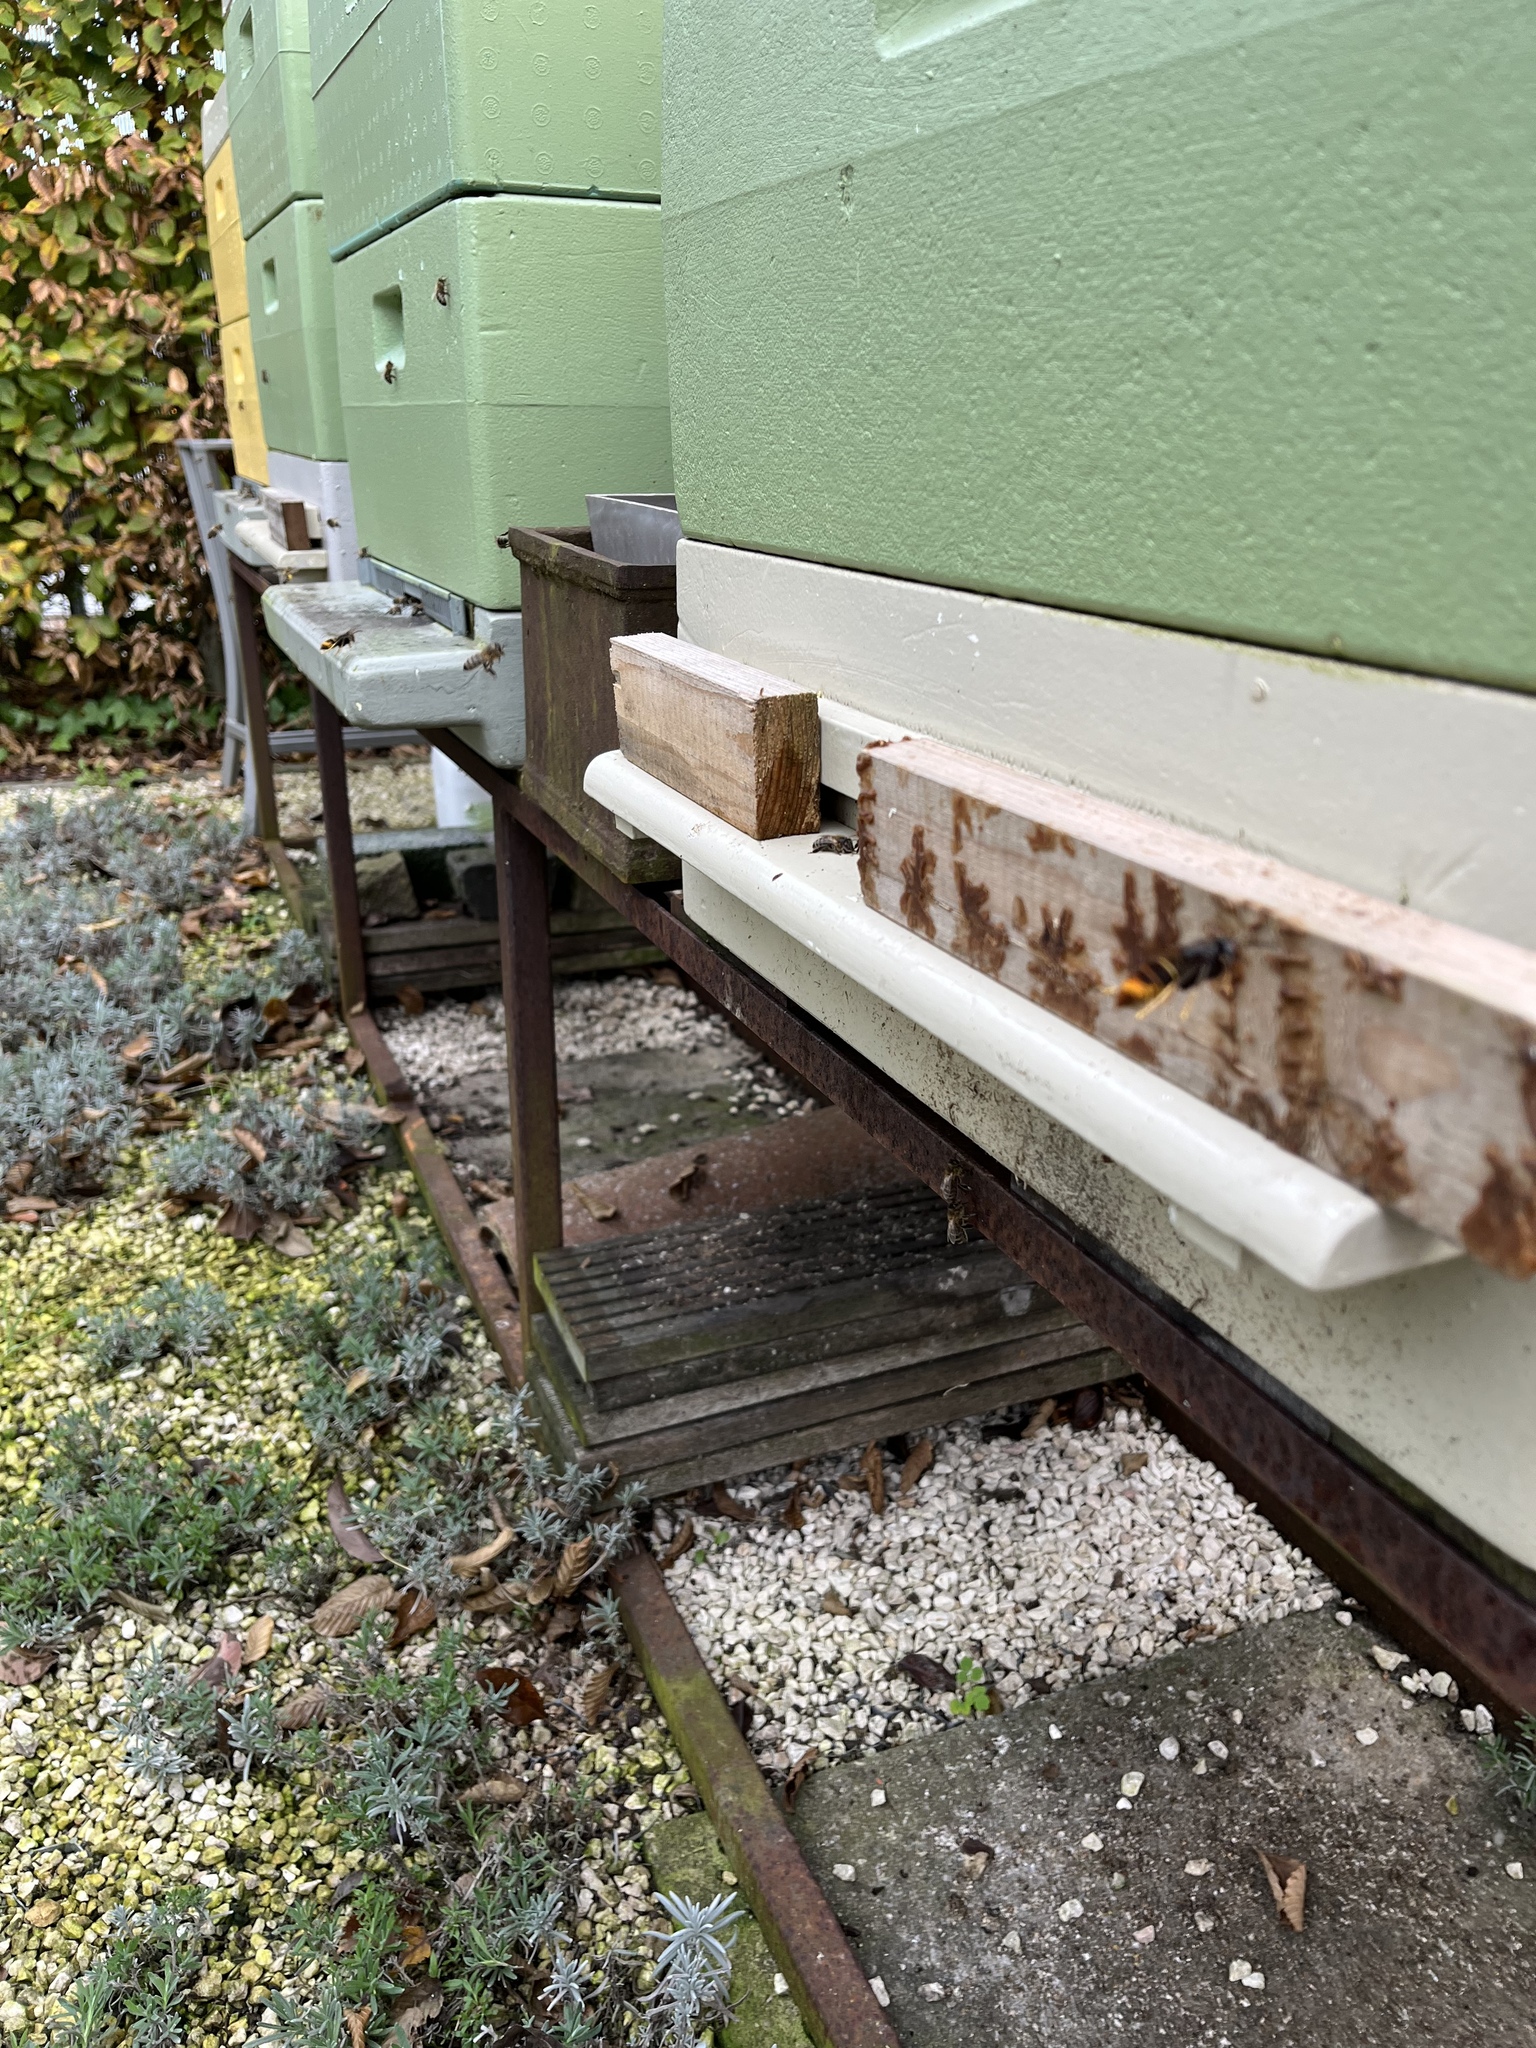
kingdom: Animalia
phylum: Arthropoda
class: Insecta
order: Hymenoptera
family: Vespidae
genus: Vespa
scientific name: Vespa velutina
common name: Asian hornet
